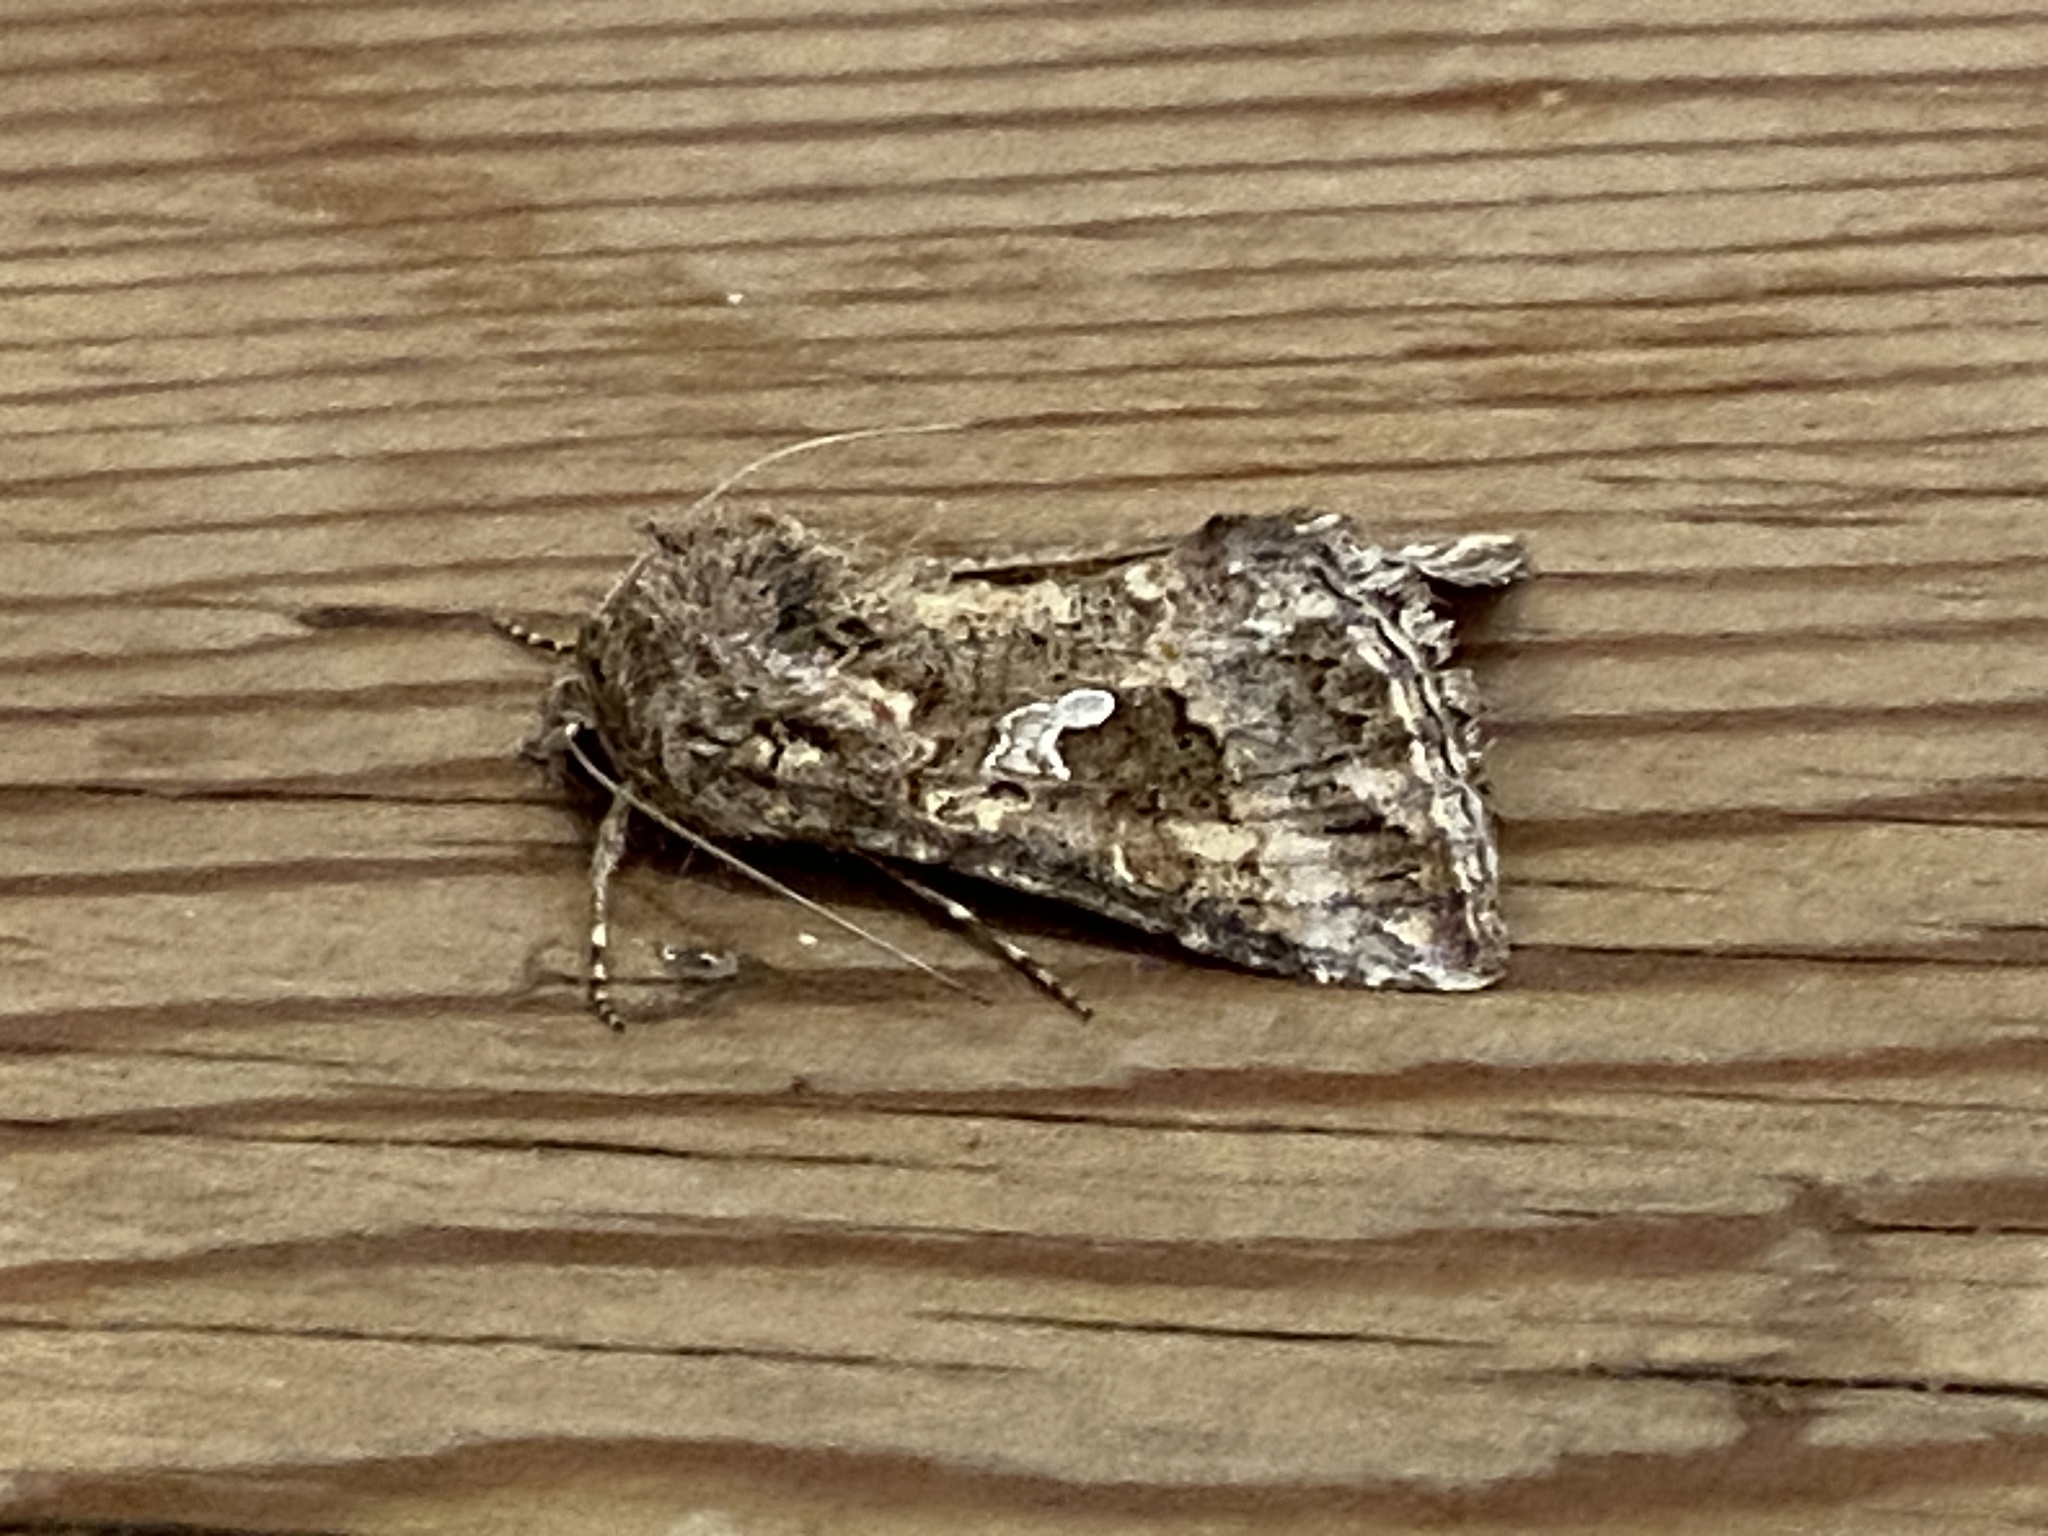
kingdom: Animalia
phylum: Arthropoda
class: Insecta
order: Lepidoptera
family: Noctuidae
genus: Trichoplusia
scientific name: Trichoplusia ni
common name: Ni moth
